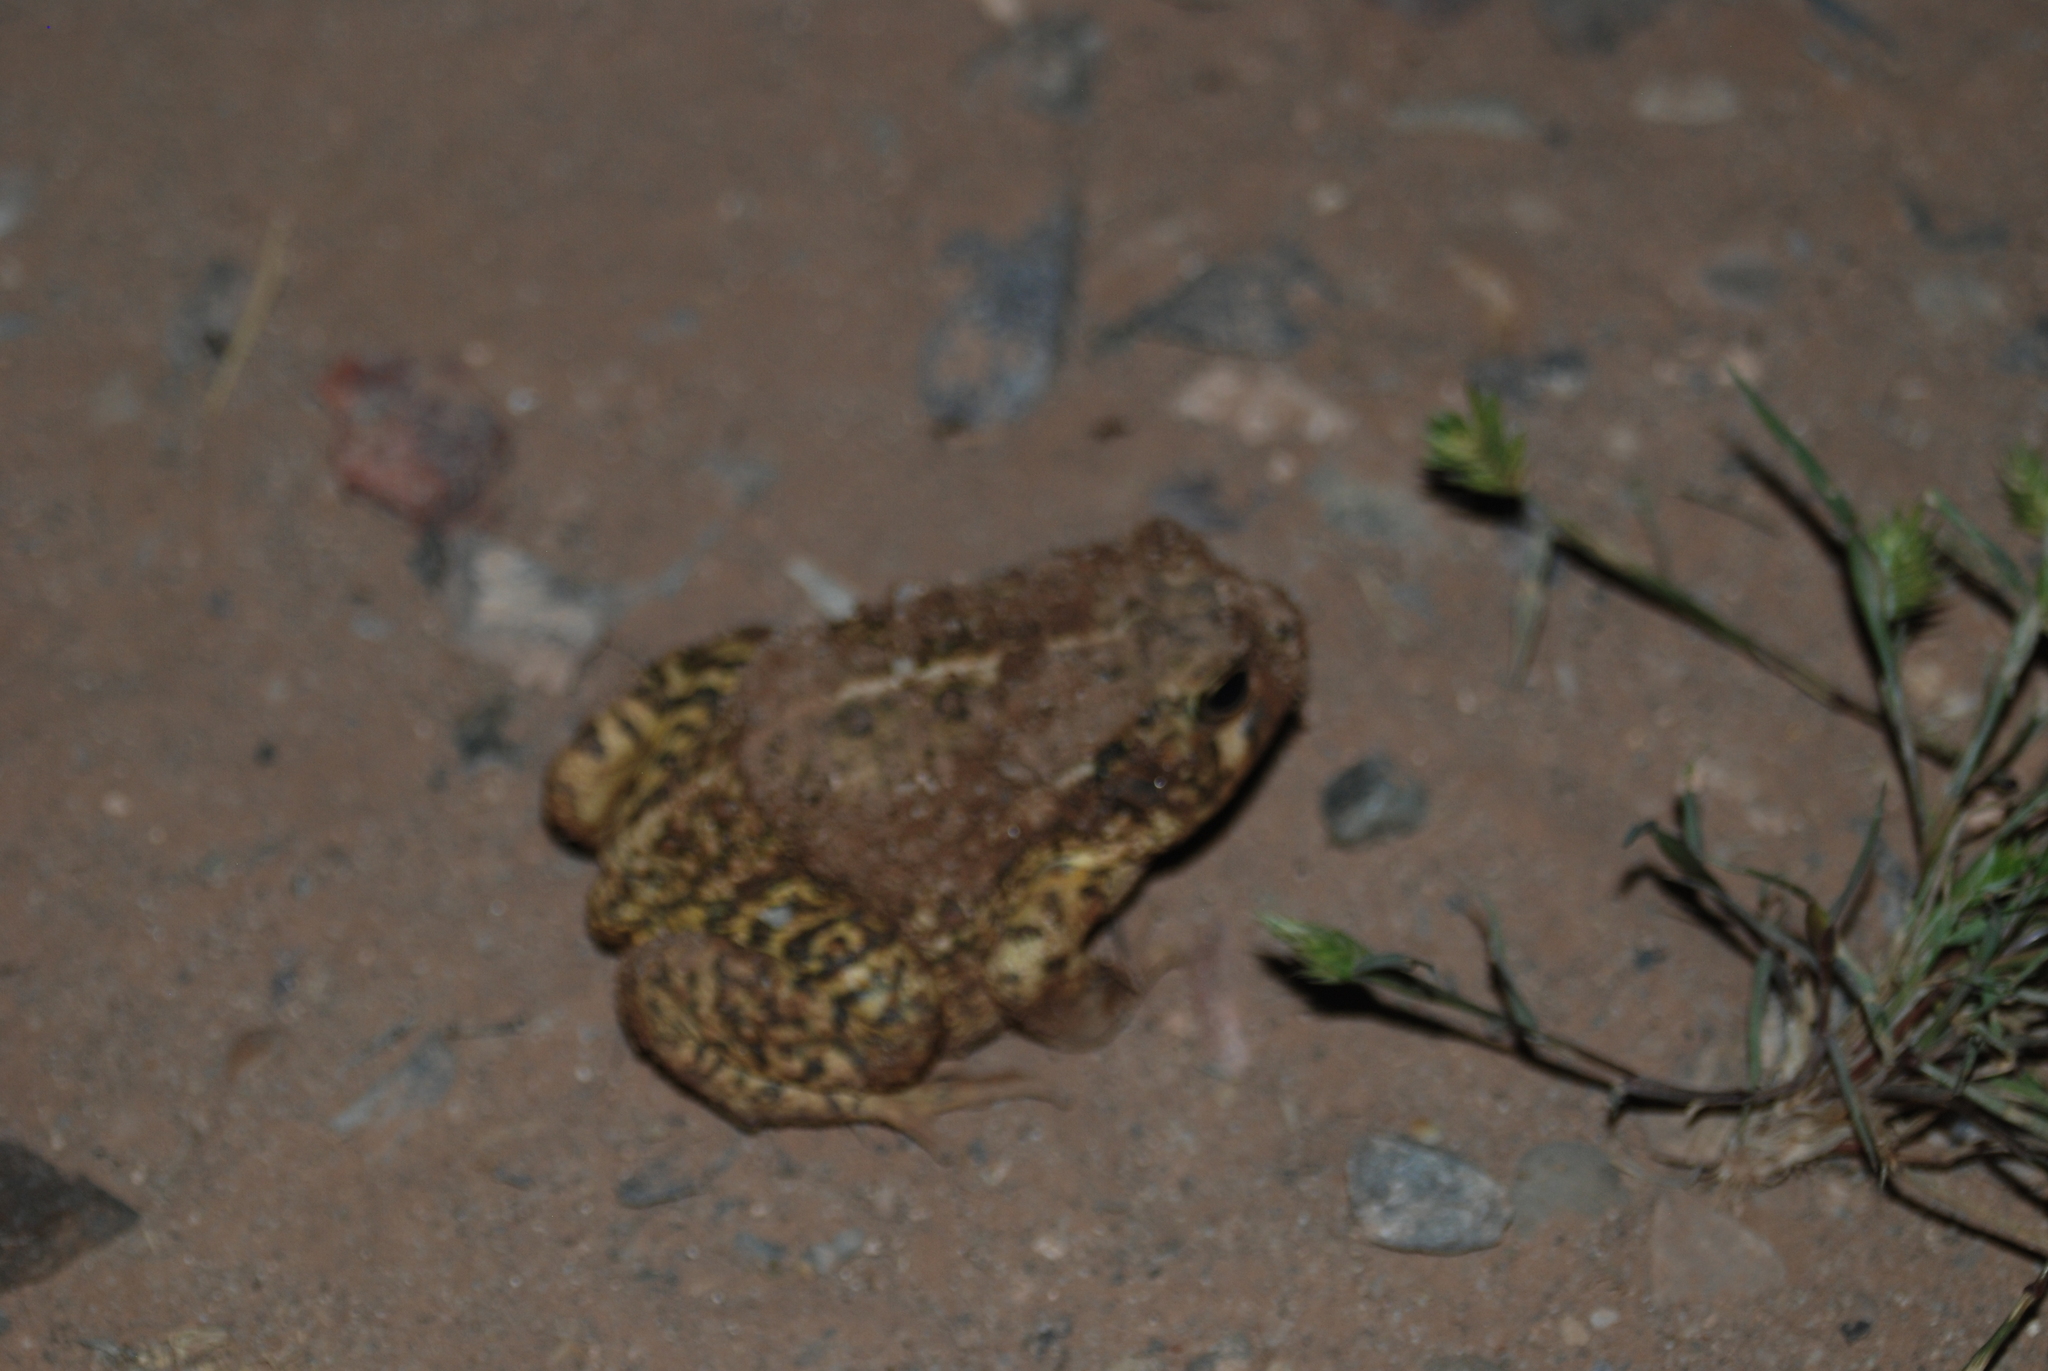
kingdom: Animalia
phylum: Chordata
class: Amphibia
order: Anura
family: Bufonidae
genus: Anaxyrus
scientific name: Anaxyrus woodhousii
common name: Woodhouse's toad
